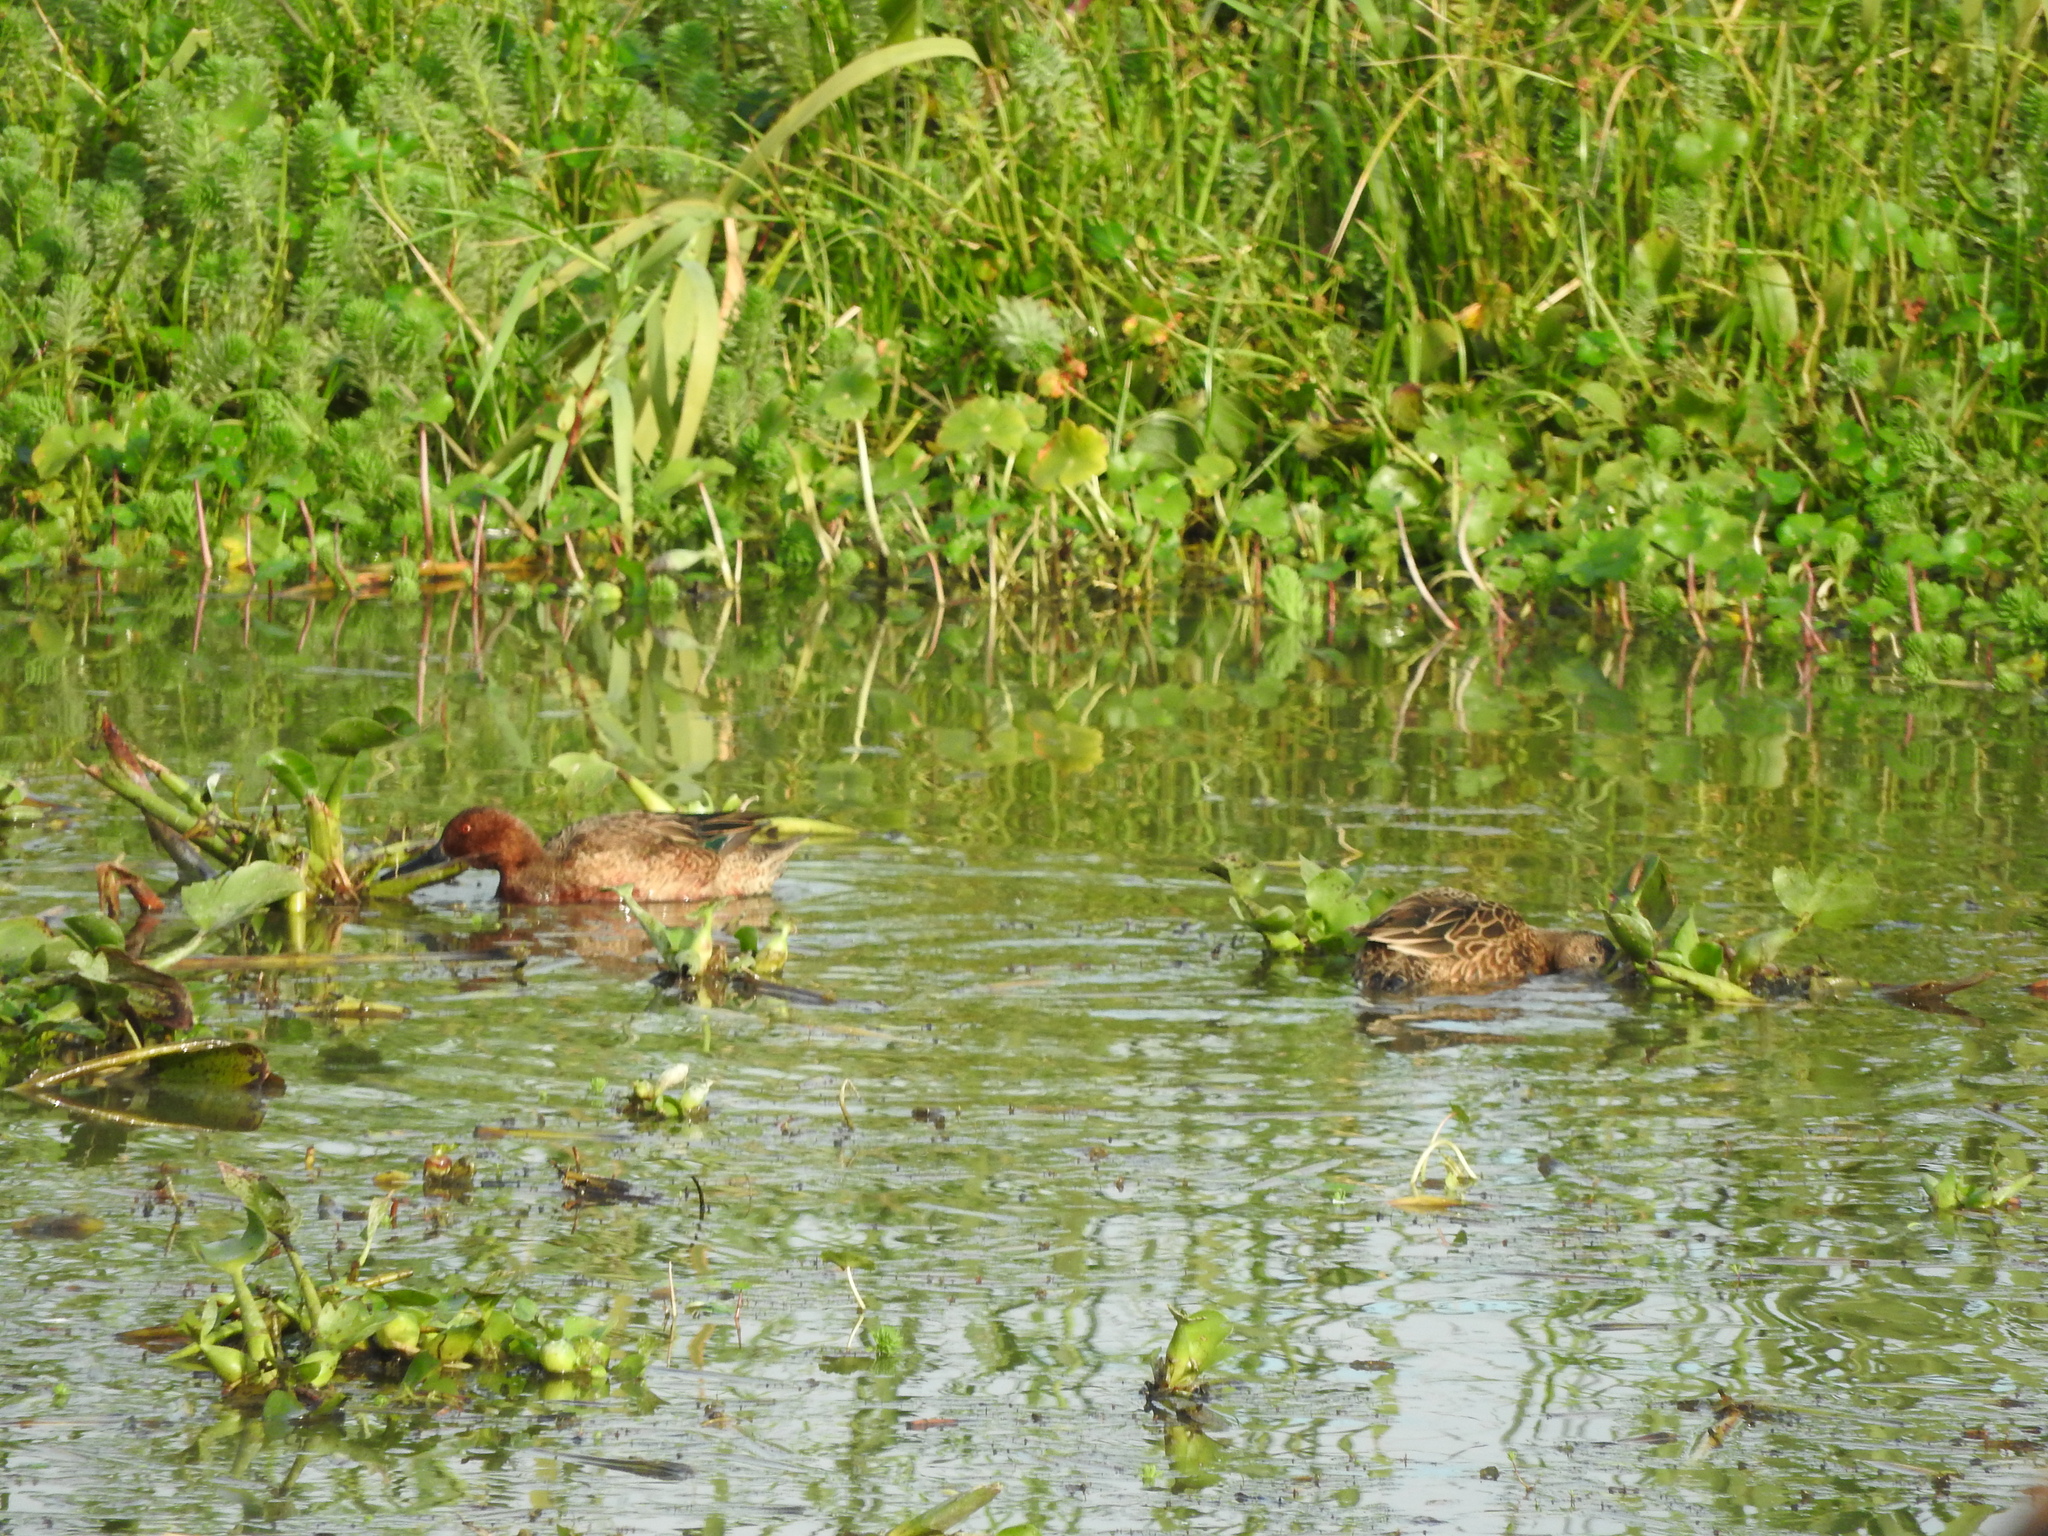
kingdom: Animalia
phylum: Chordata
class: Aves
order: Anseriformes
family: Anatidae
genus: Spatula
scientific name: Spatula cyanoptera
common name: Cinnamon teal
